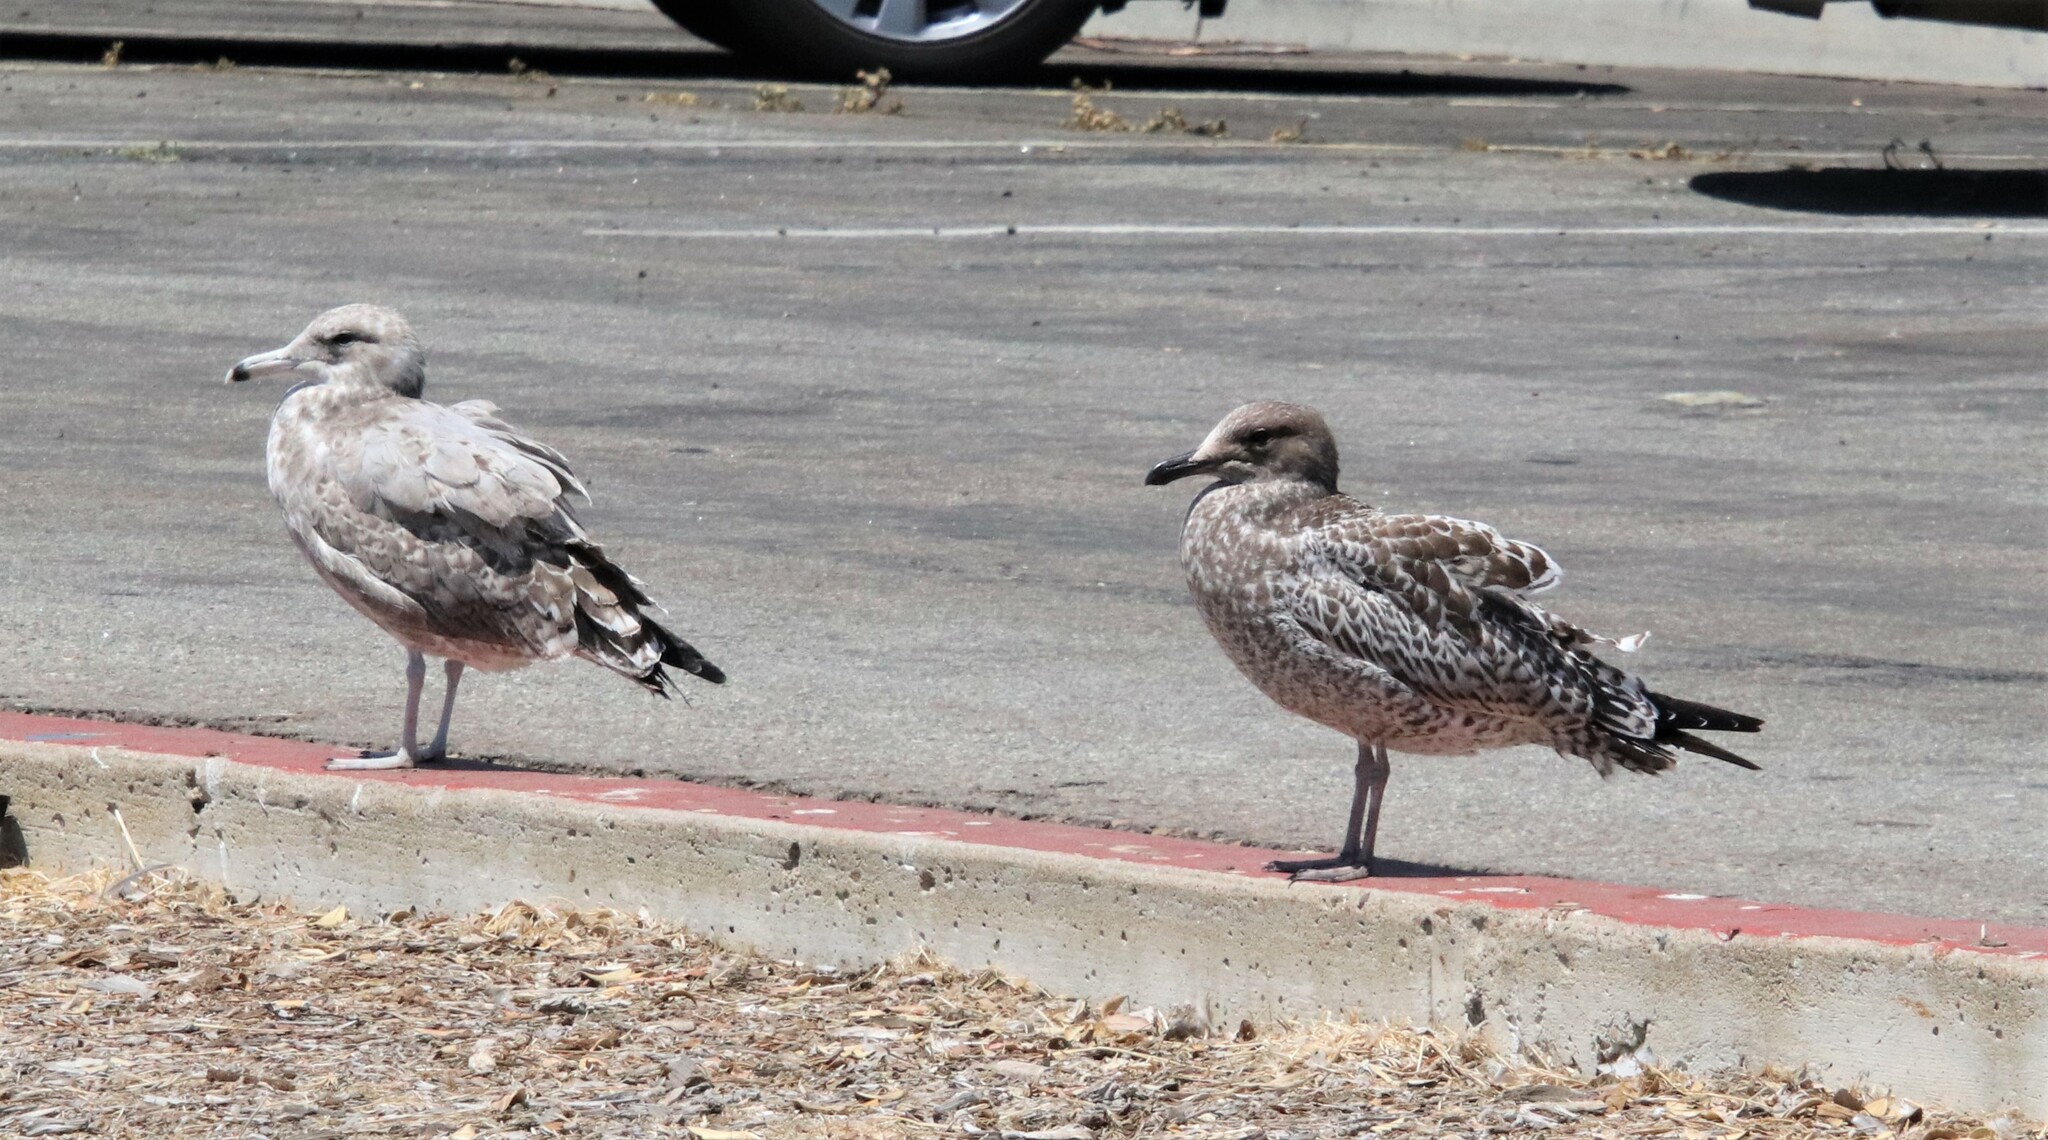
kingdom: Animalia
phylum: Chordata
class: Aves
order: Charadriiformes
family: Laridae
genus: Larus
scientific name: Larus californicus
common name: California gull
